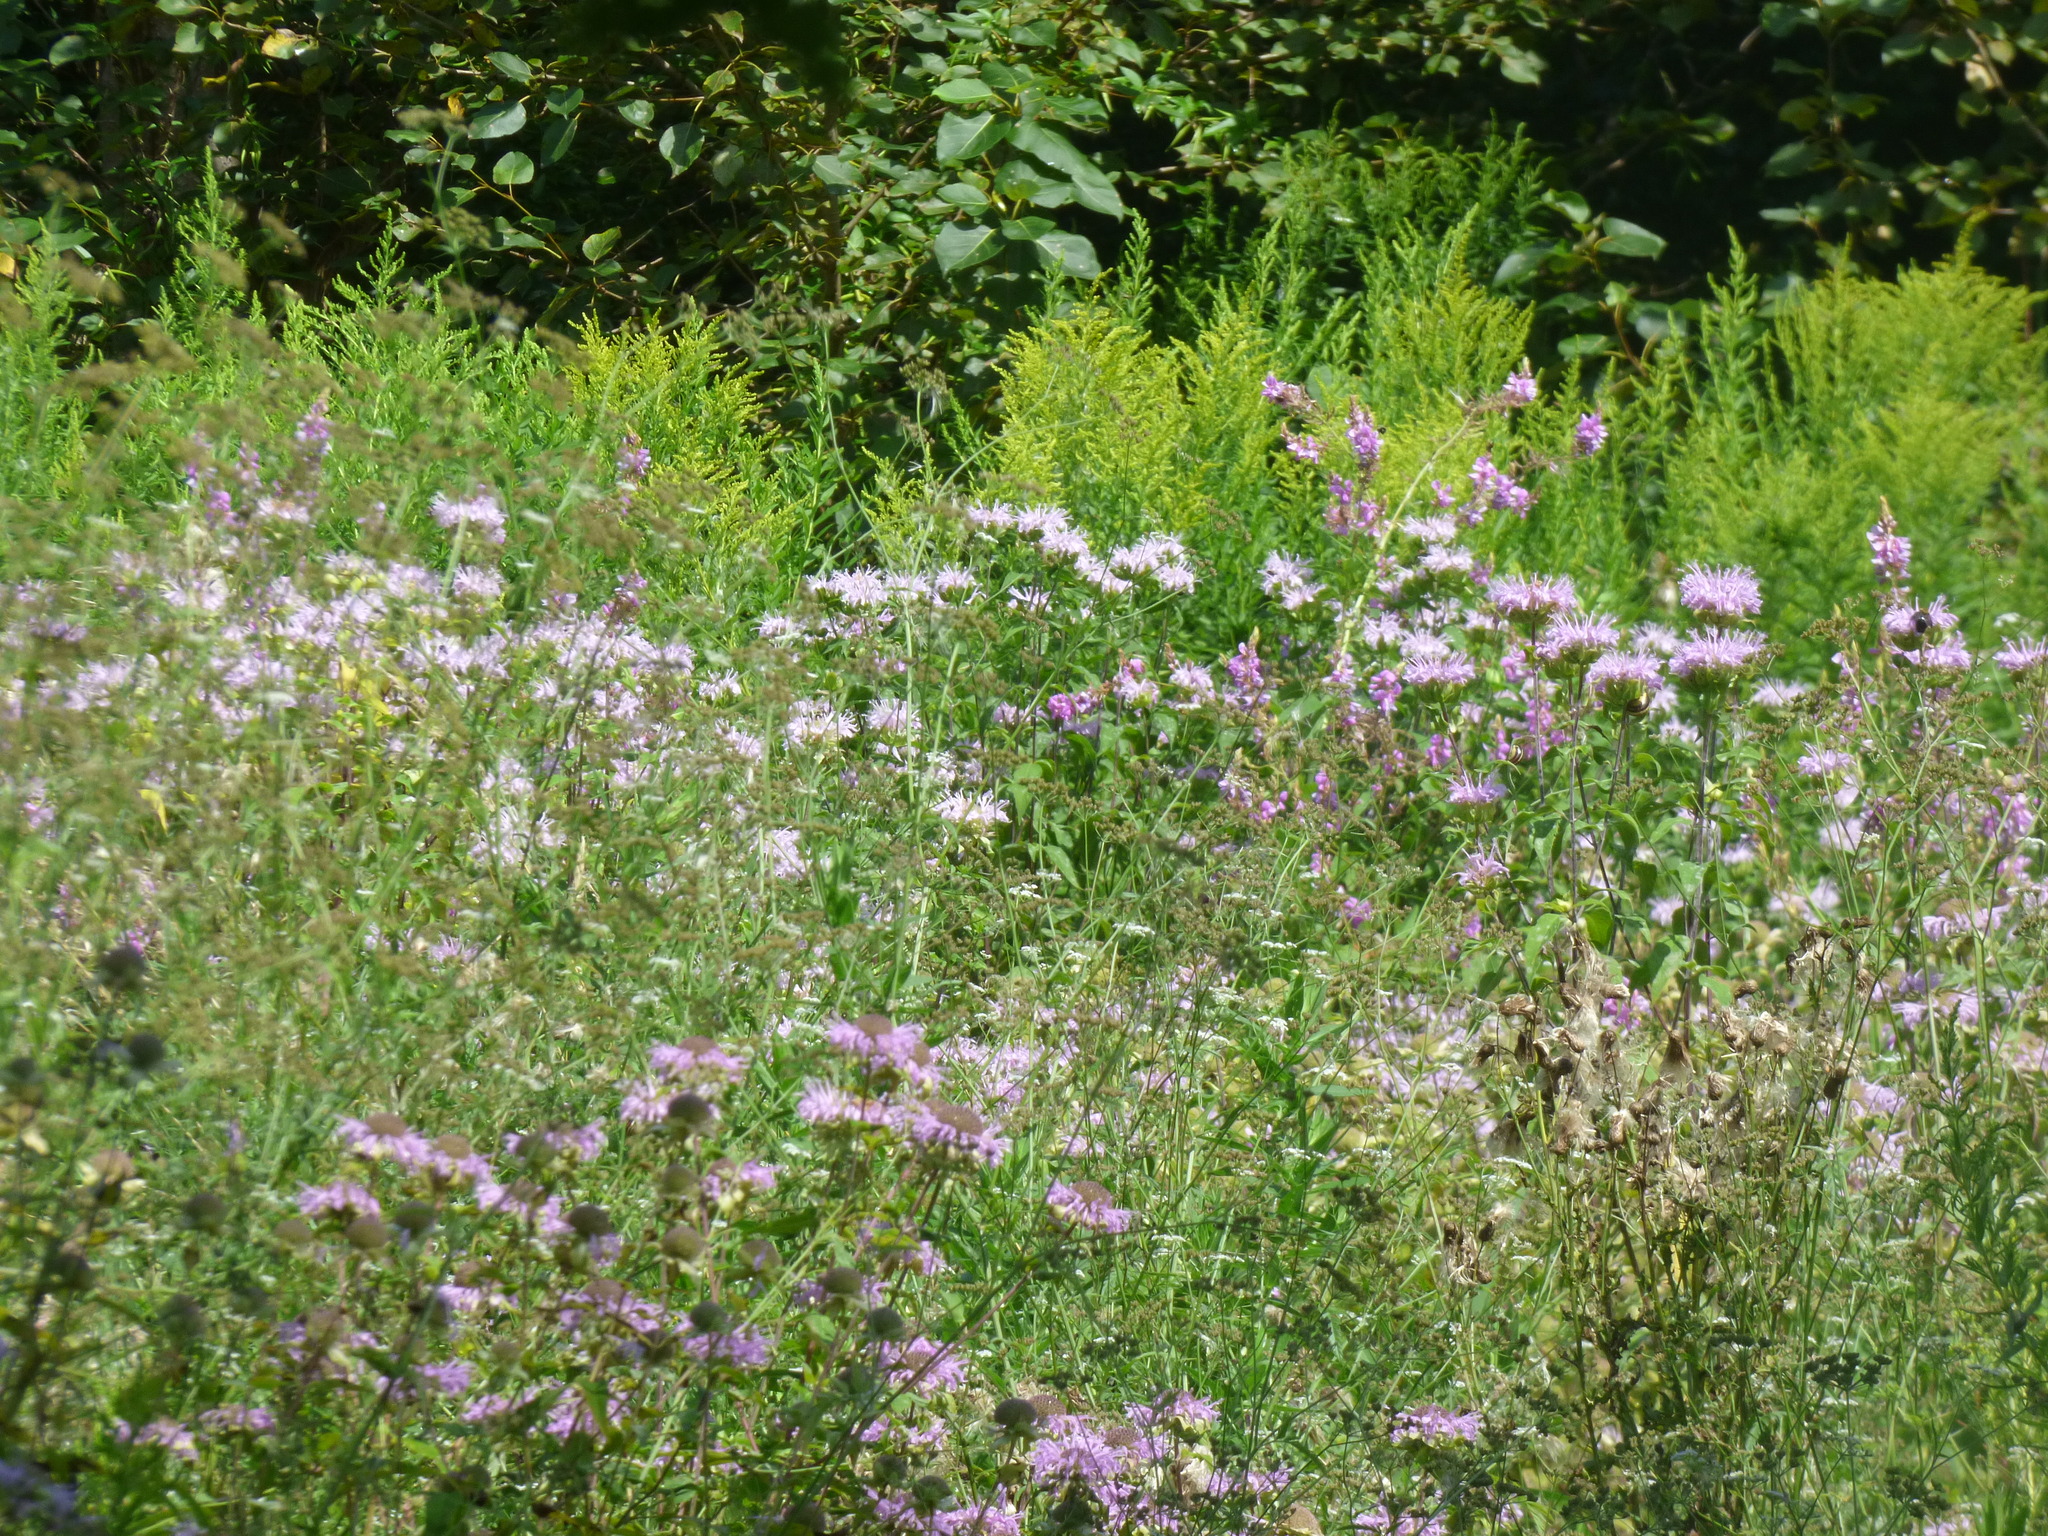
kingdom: Plantae
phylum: Tracheophyta
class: Magnoliopsida
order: Lamiales
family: Lamiaceae
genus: Monarda
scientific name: Monarda fistulosa
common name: Purple beebalm
